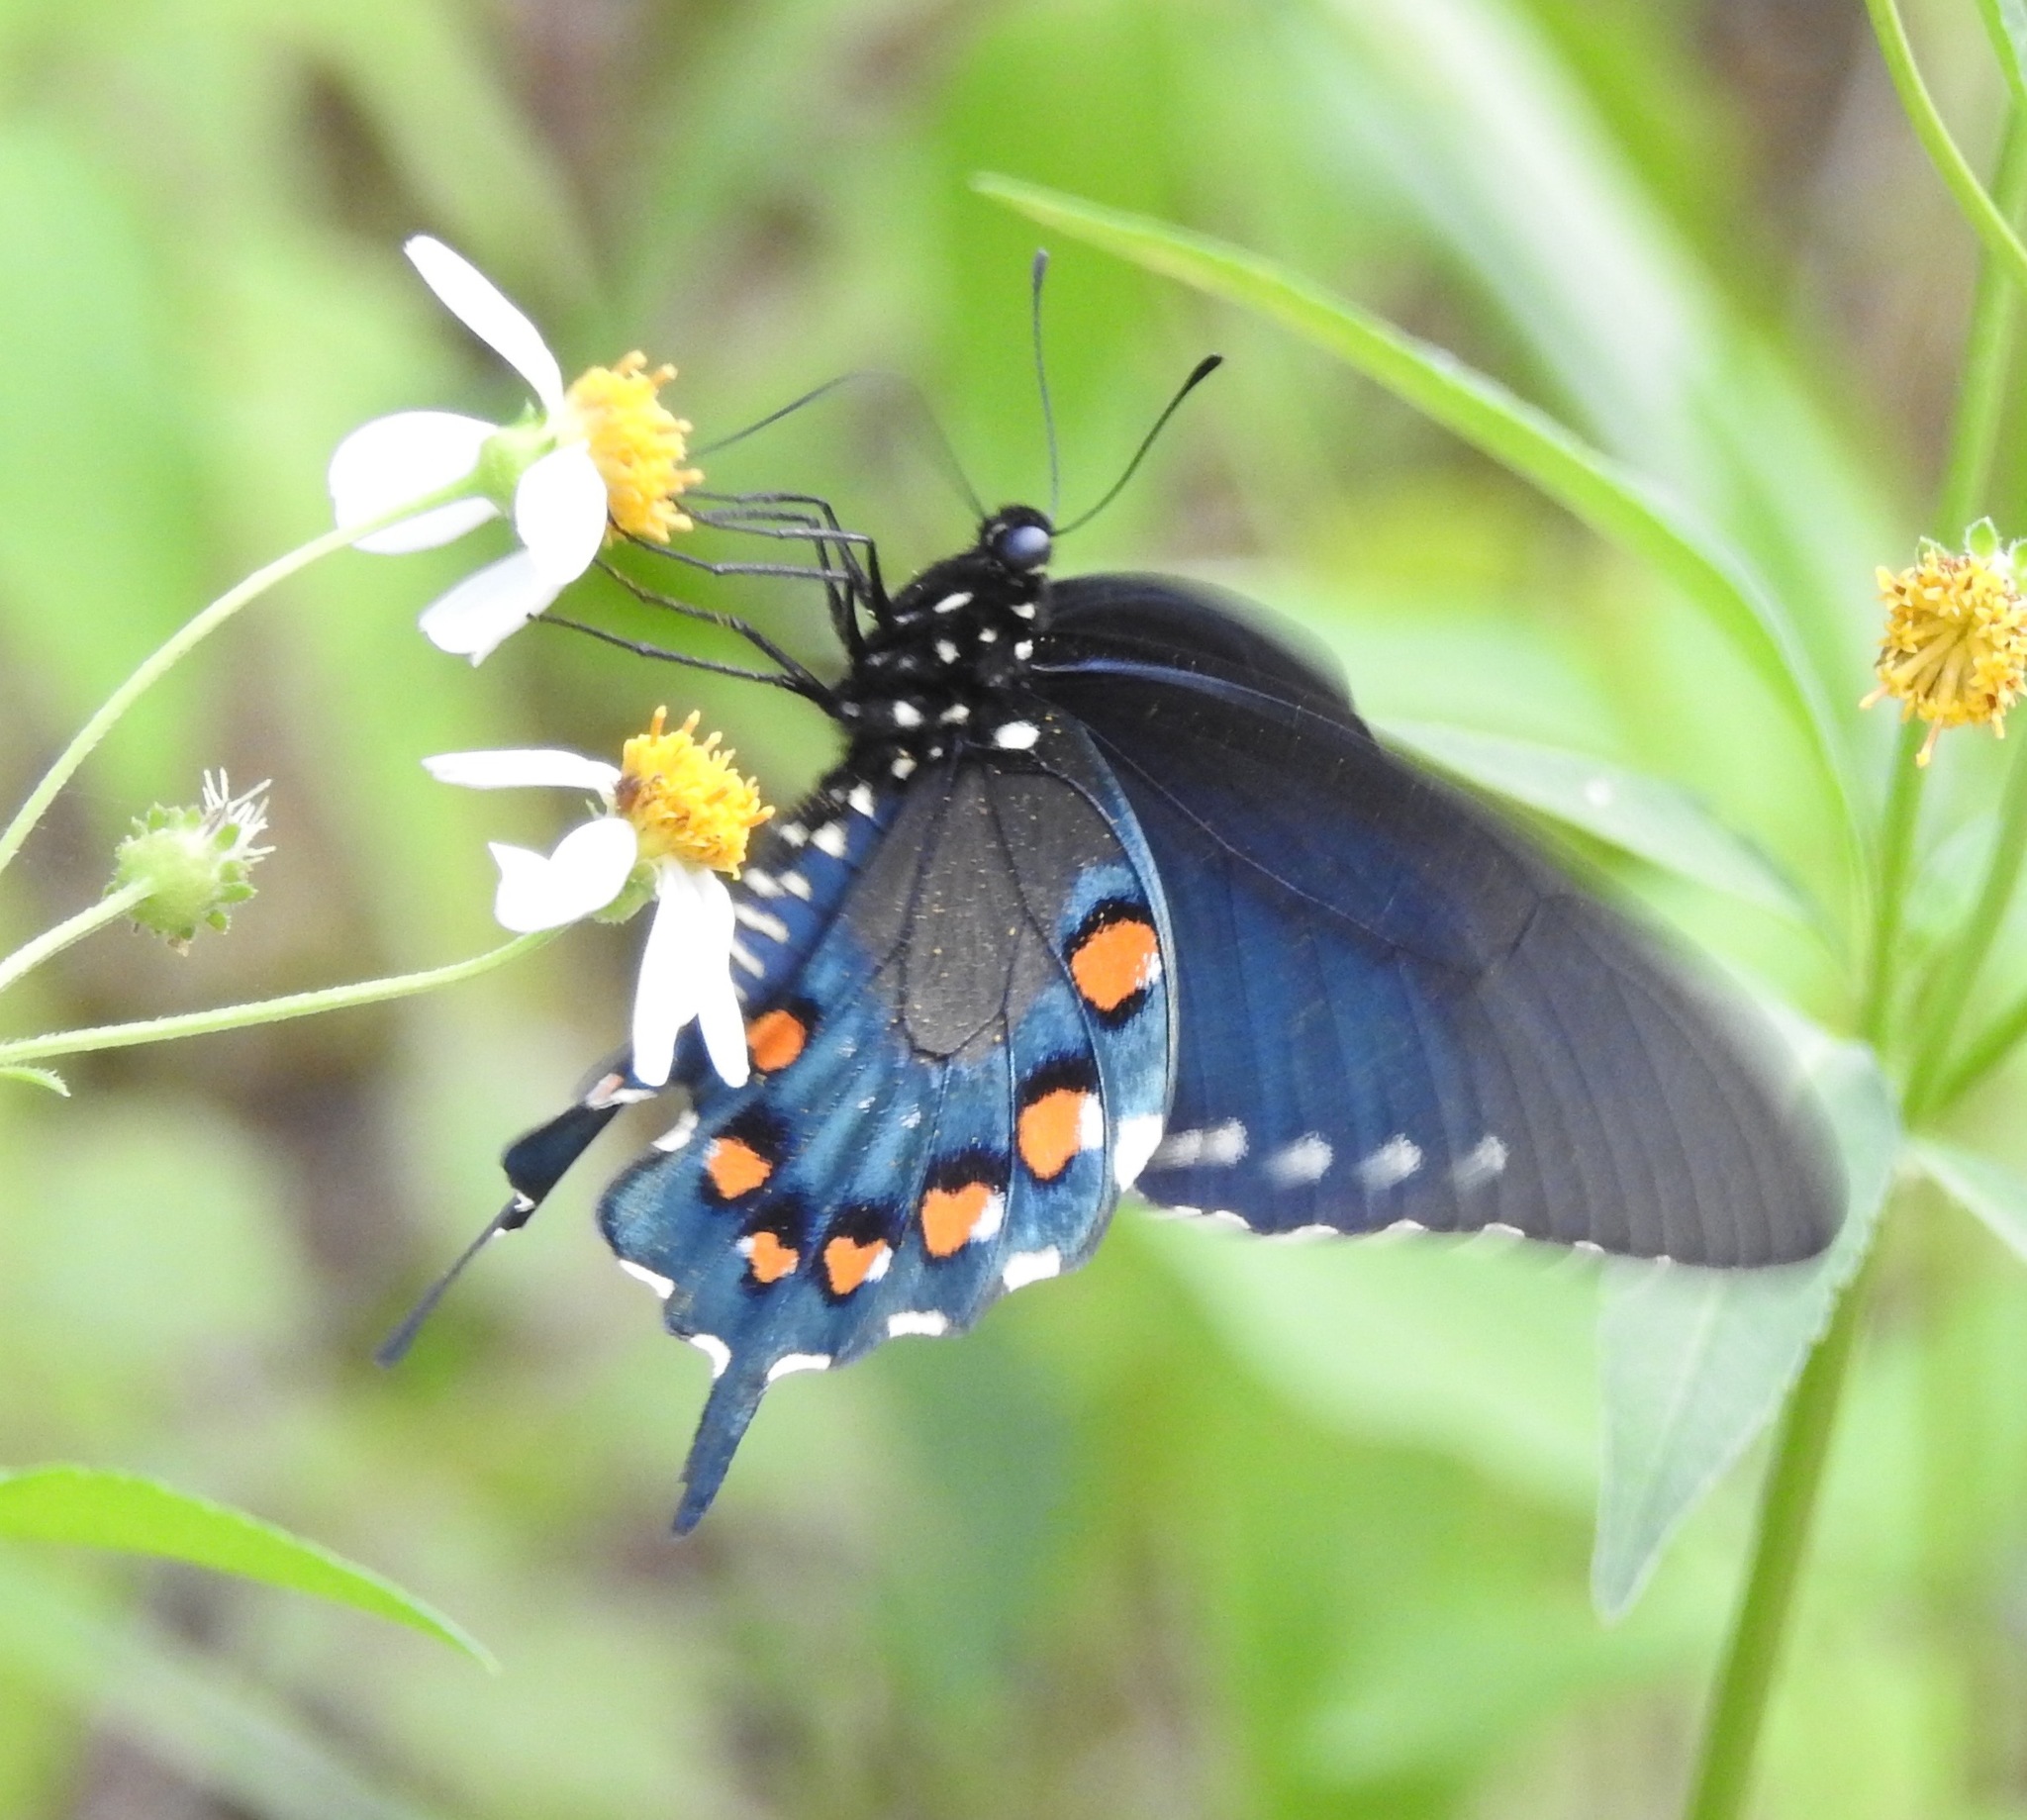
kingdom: Animalia
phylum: Arthropoda
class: Insecta
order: Lepidoptera
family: Papilionidae
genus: Battus
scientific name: Battus philenor
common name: Pipevine swallowtail
